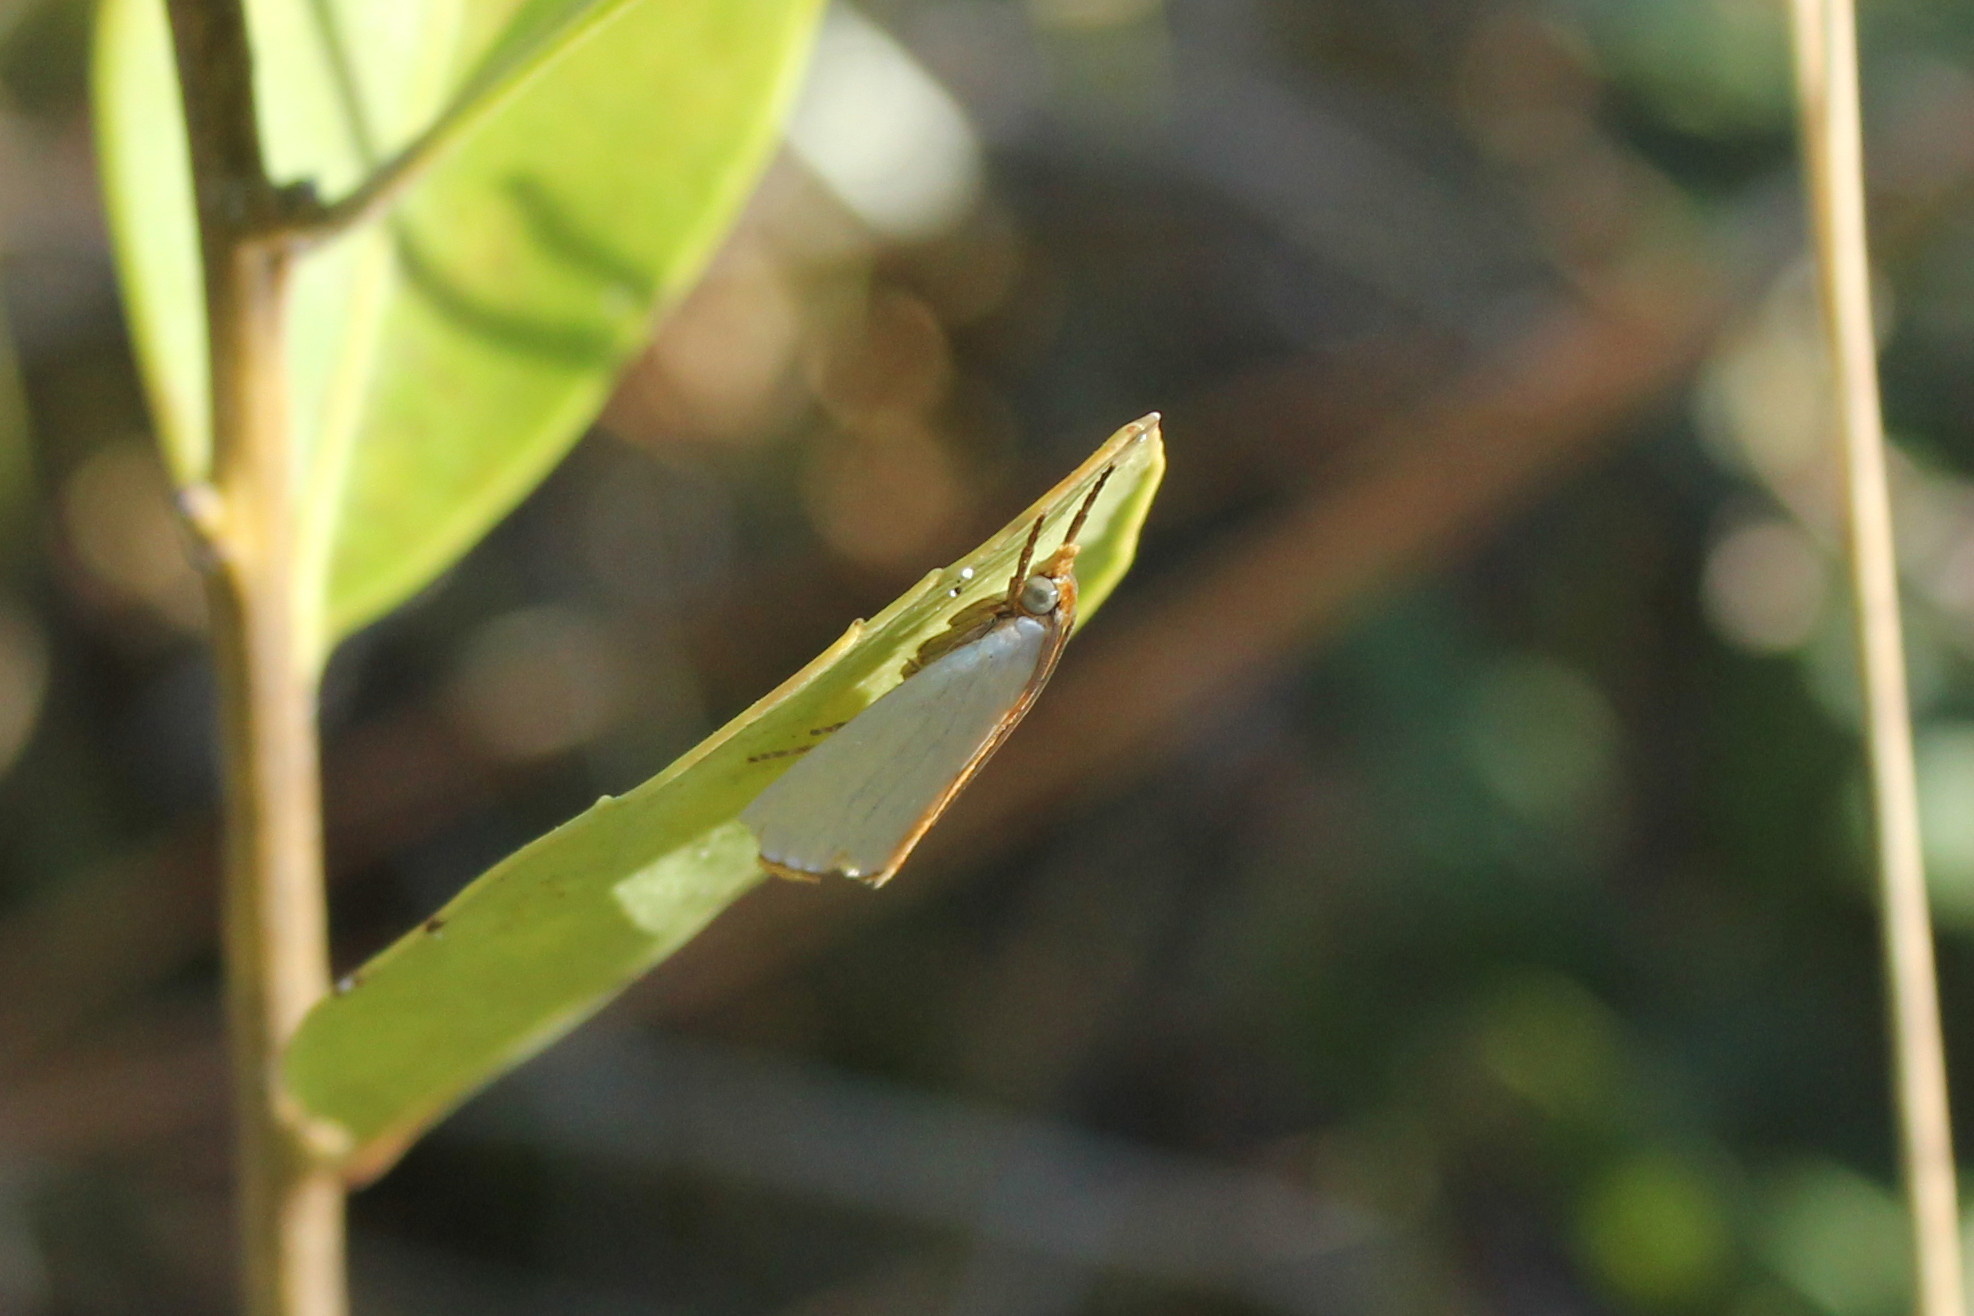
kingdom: Animalia
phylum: Arthropoda
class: Insecta
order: Lepidoptera
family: Crambidae
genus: Argyria
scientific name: Argyria nivalis
